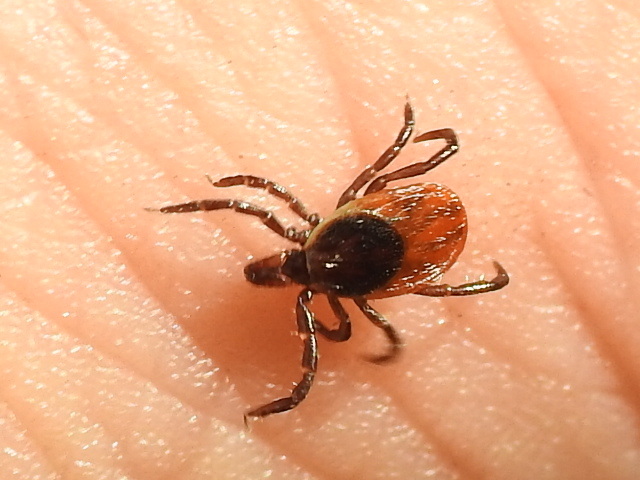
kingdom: Animalia
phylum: Arthropoda
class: Arachnida
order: Ixodida
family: Ixodidae
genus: Ixodes
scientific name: Ixodes scapularis
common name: Black legged tick
